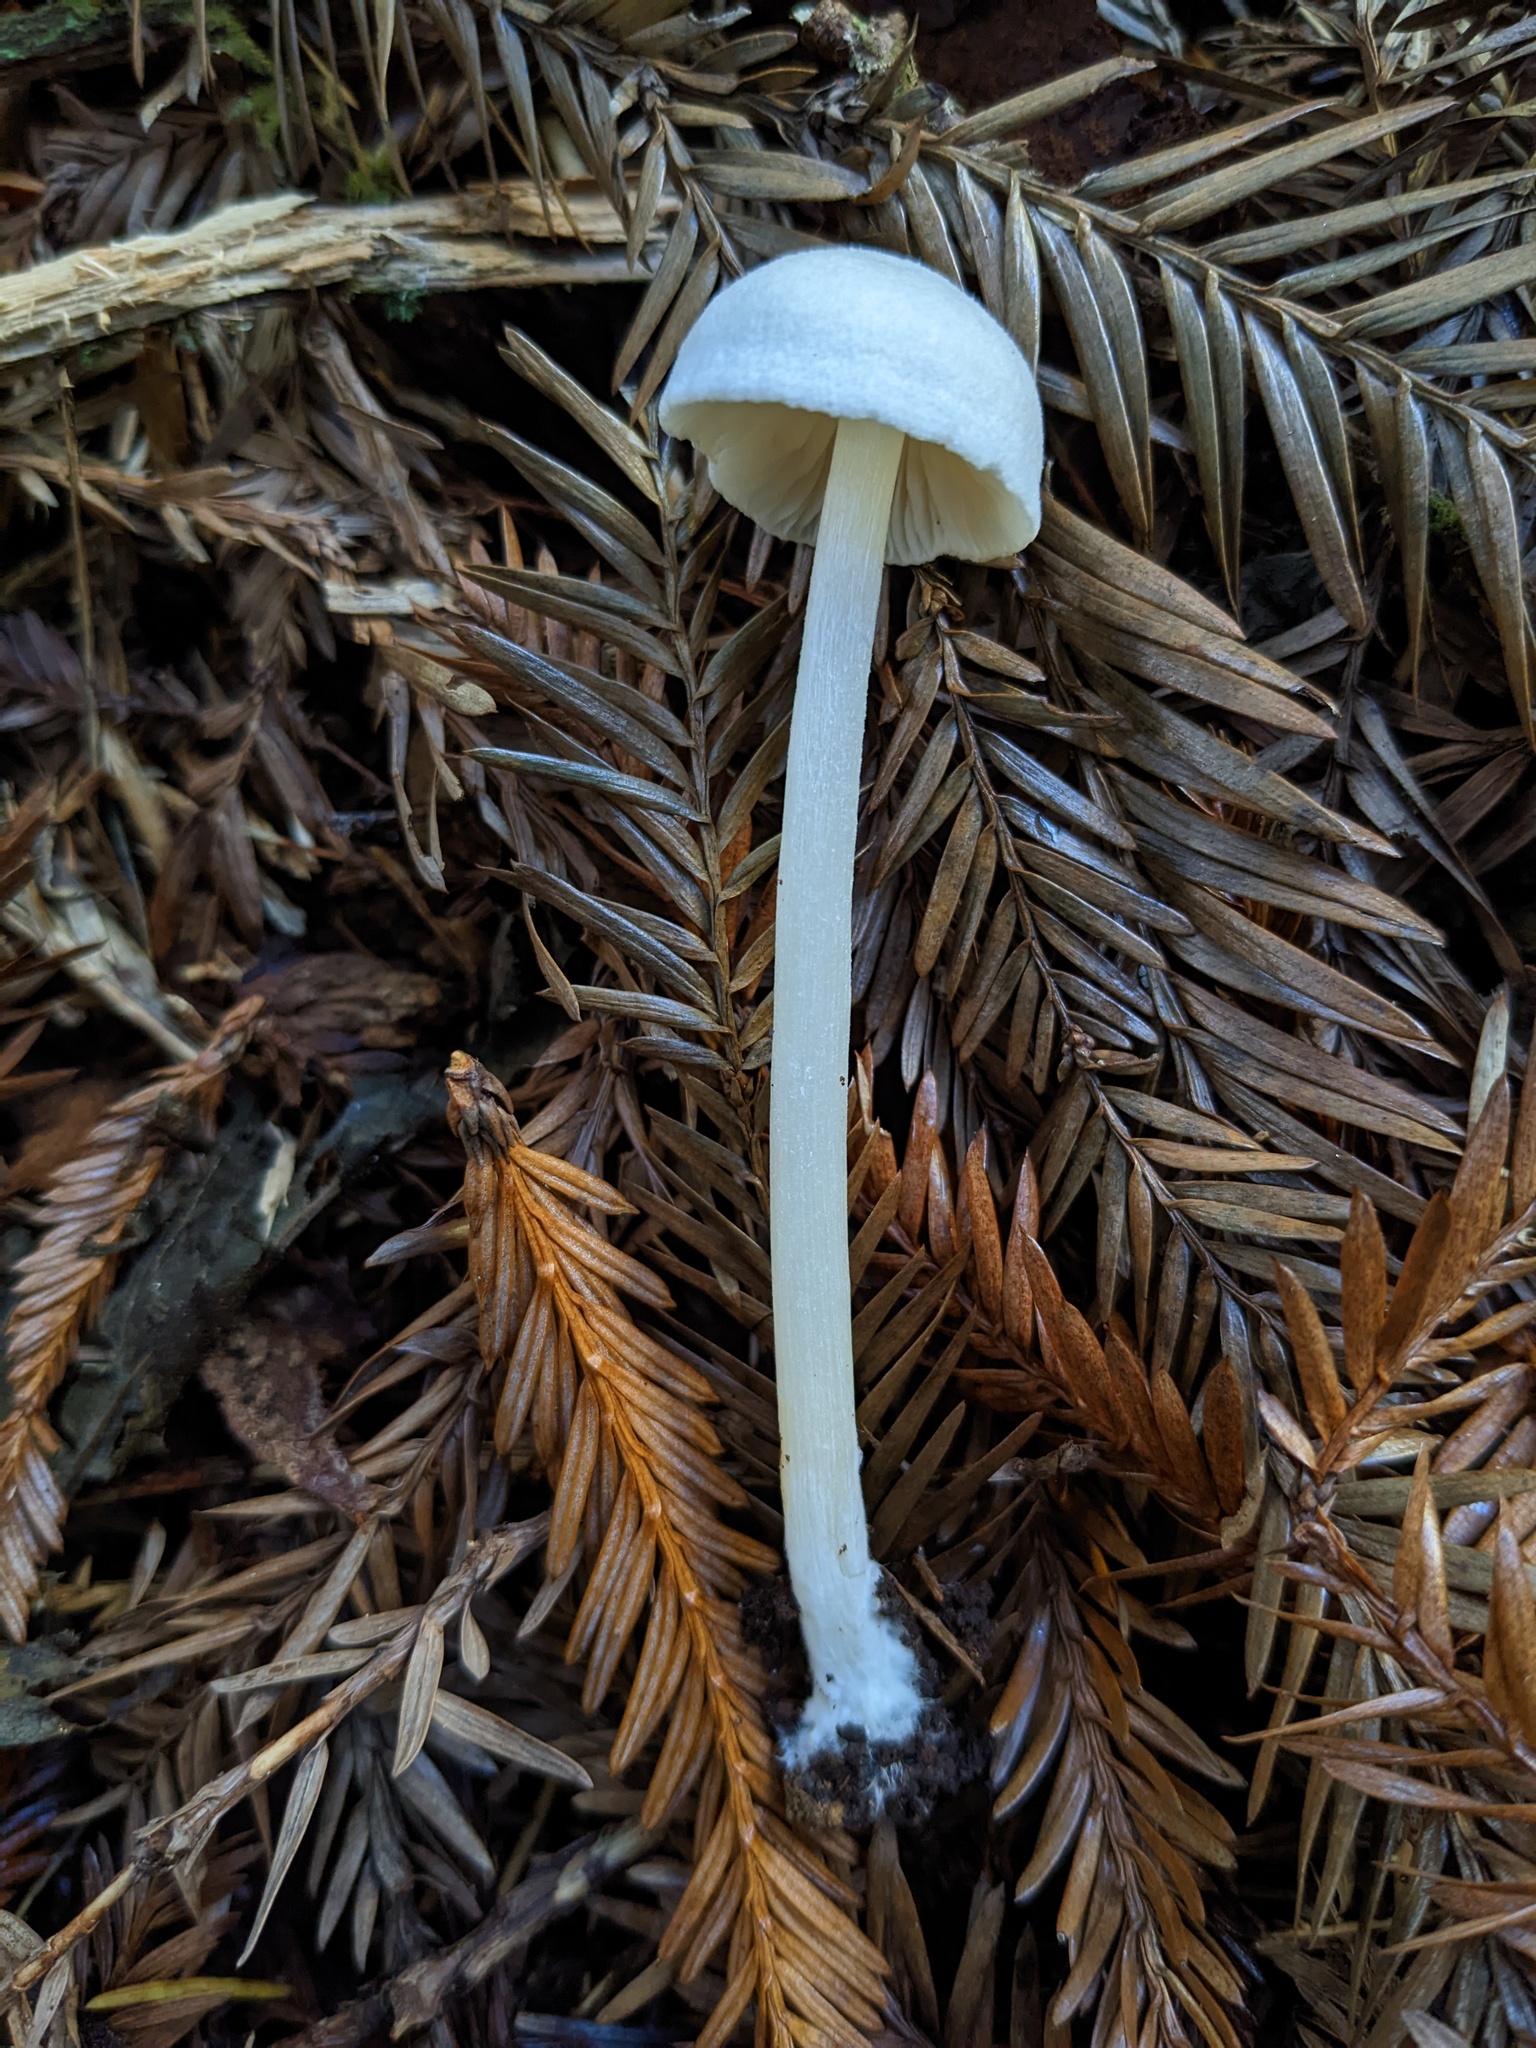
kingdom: Fungi
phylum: Basidiomycota
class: Agaricomycetes
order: Agaricales
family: Entolomataceae
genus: Entoloma
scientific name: Entoloma adnatifolium
